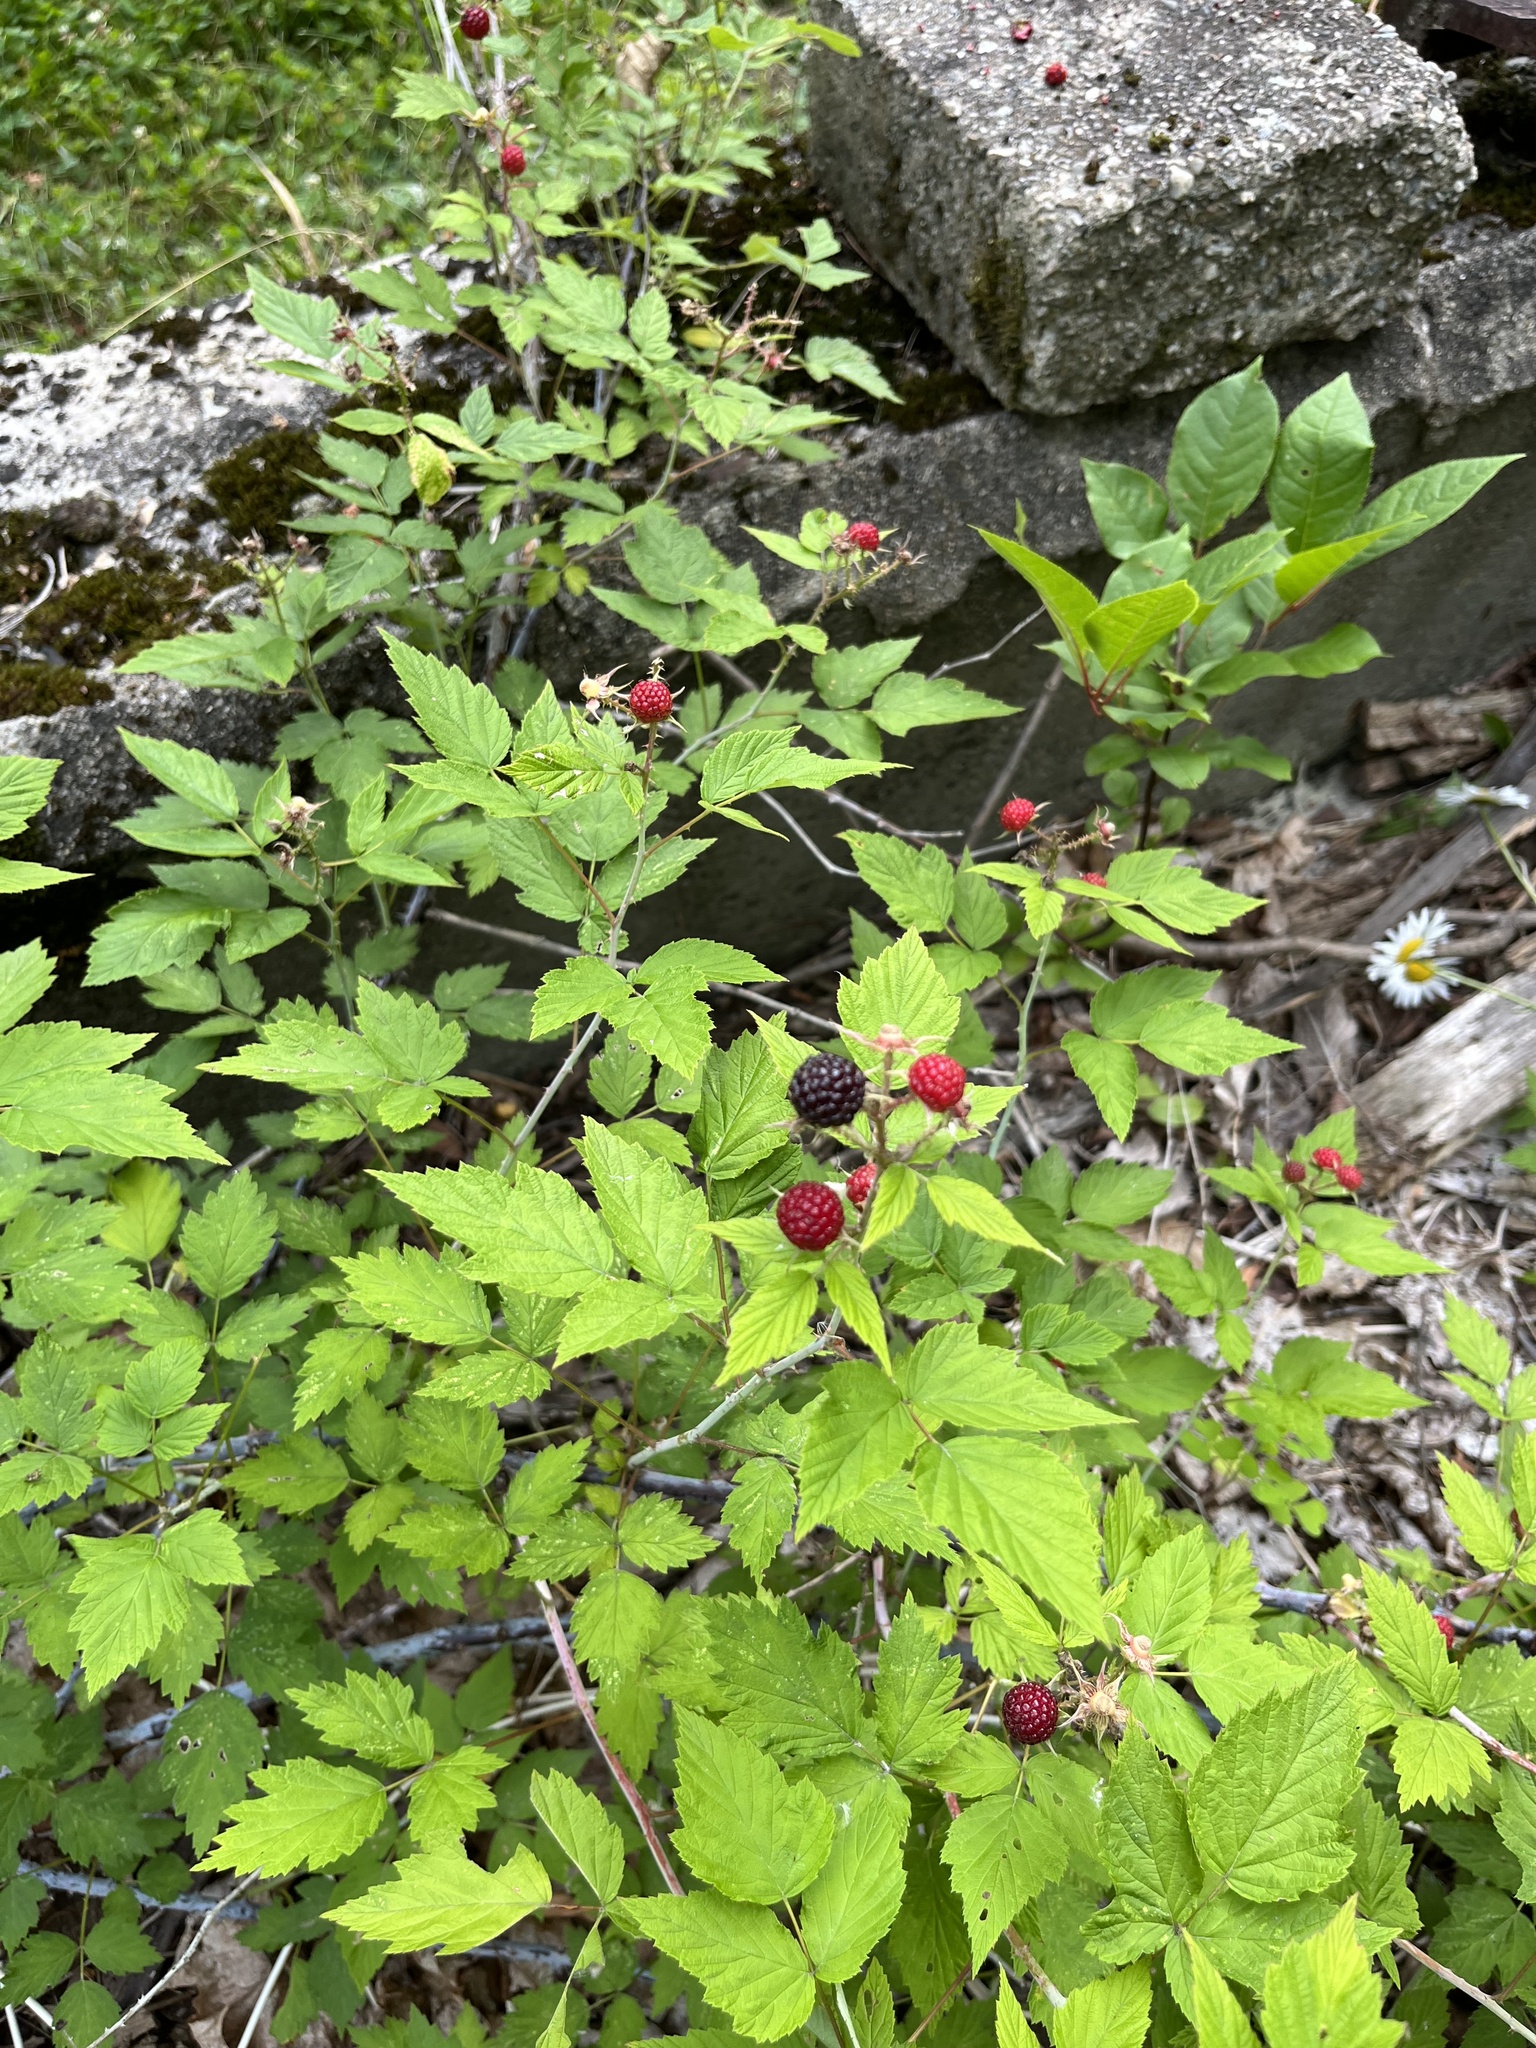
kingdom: Plantae
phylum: Tracheophyta
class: Magnoliopsida
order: Rosales
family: Rosaceae
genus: Rubus
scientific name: Rubus occidentalis
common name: Black raspberry
